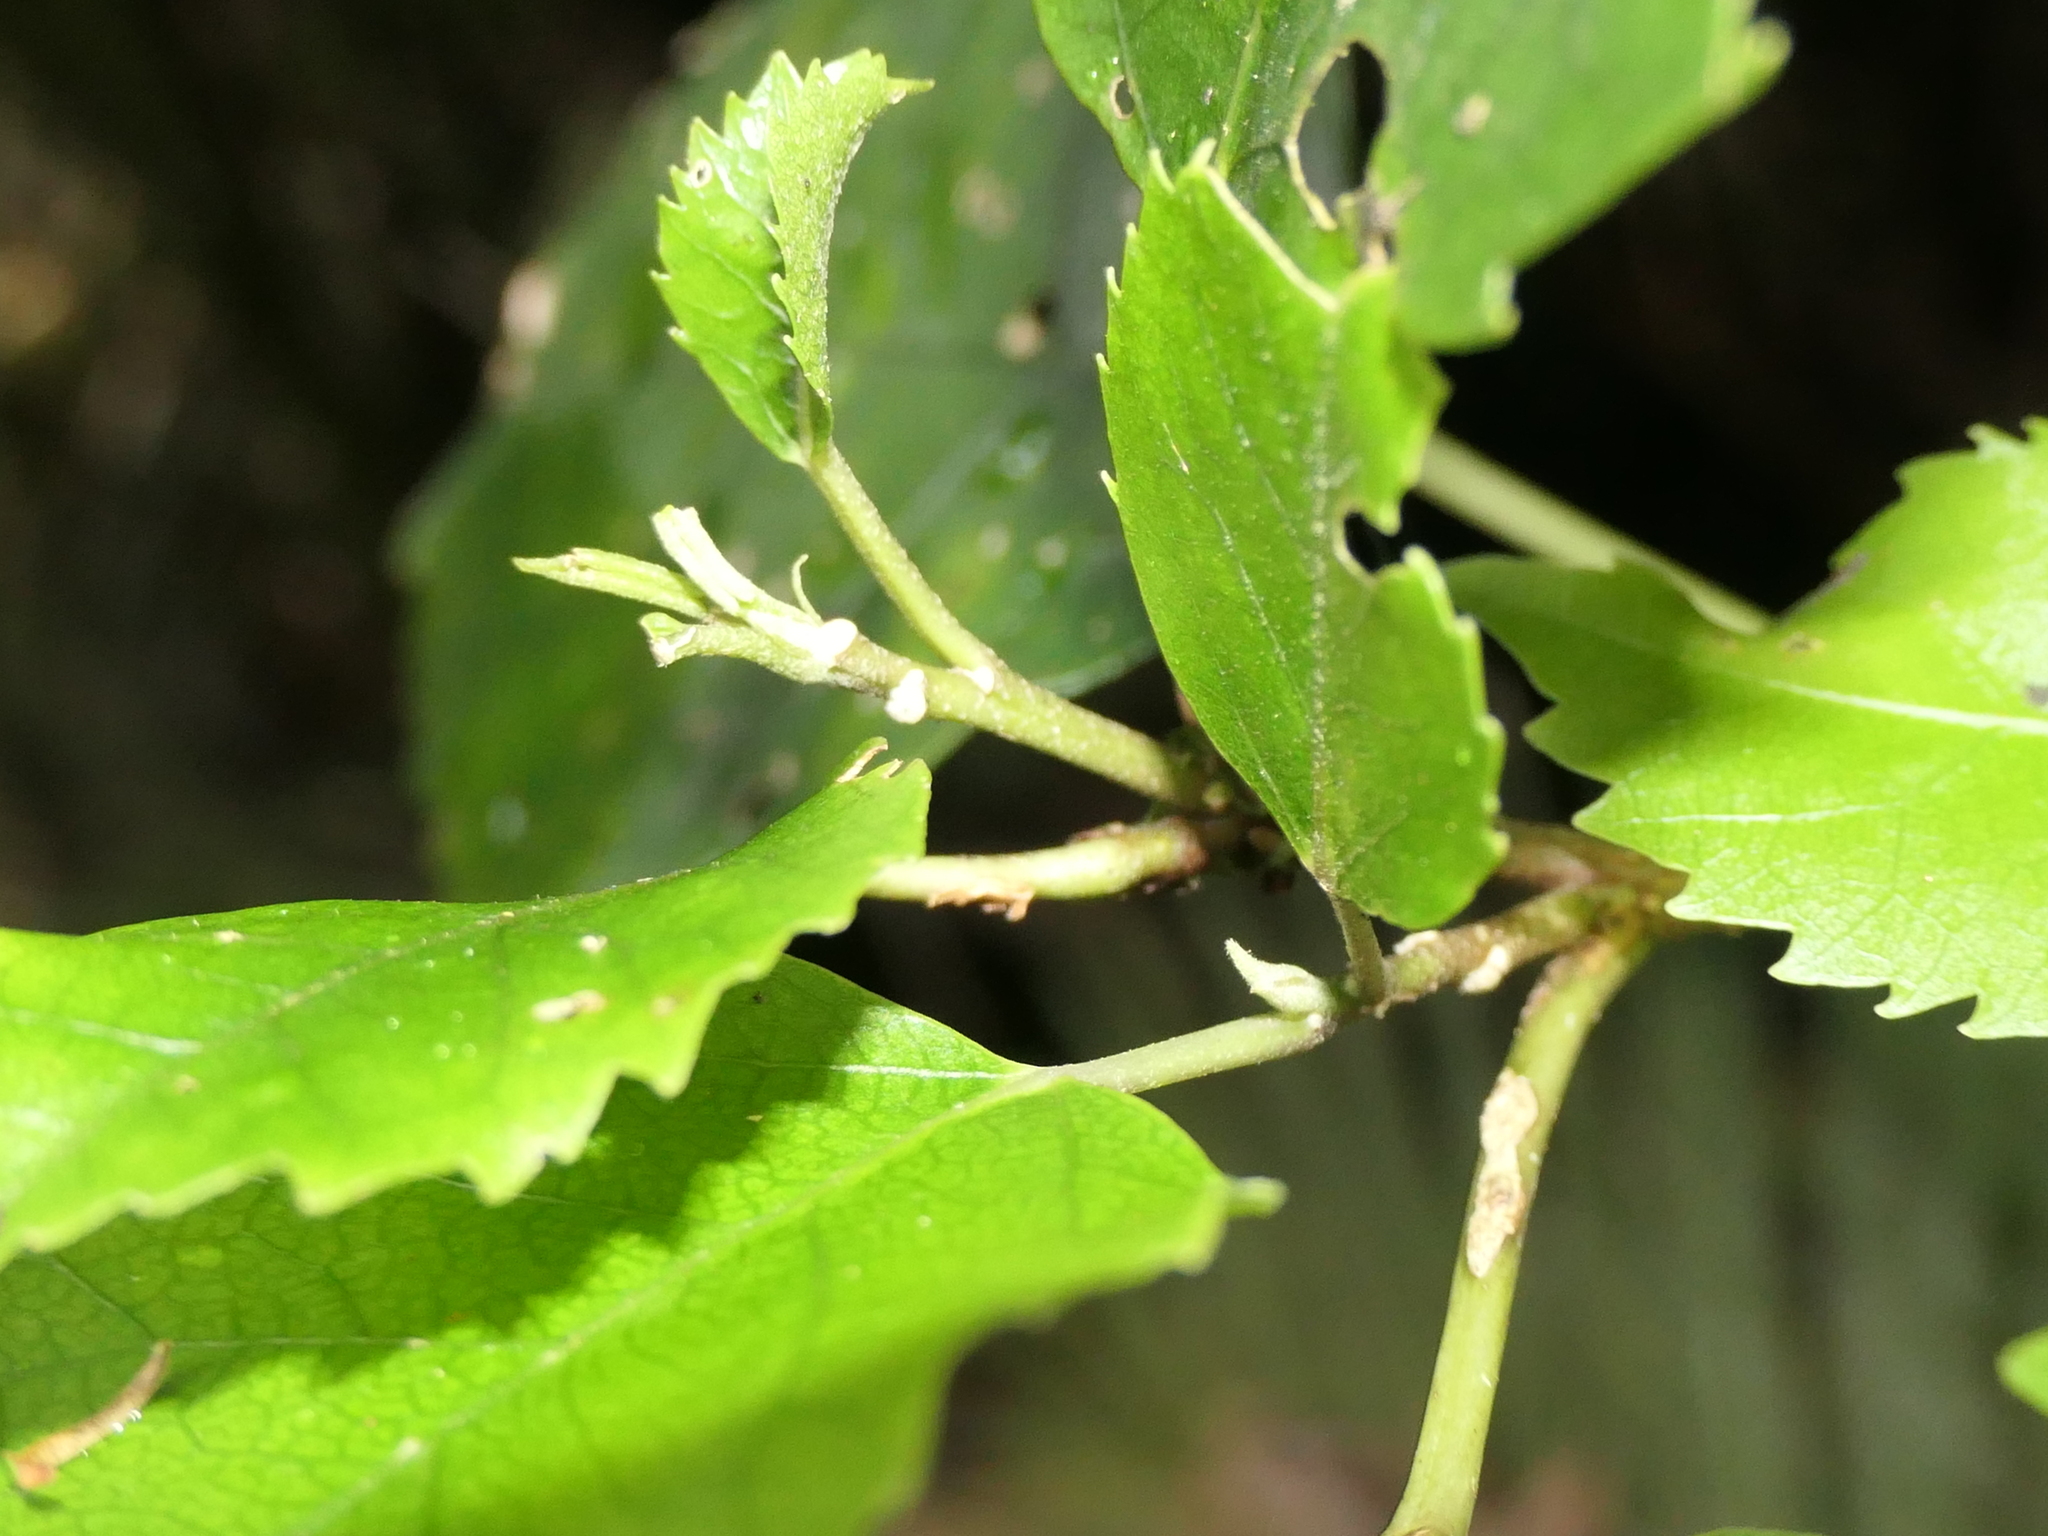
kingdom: Plantae
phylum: Tracheophyta
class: Magnoliopsida
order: Malvales
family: Malvaceae
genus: Hoheria
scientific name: Hoheria populnea
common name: Lacebark
